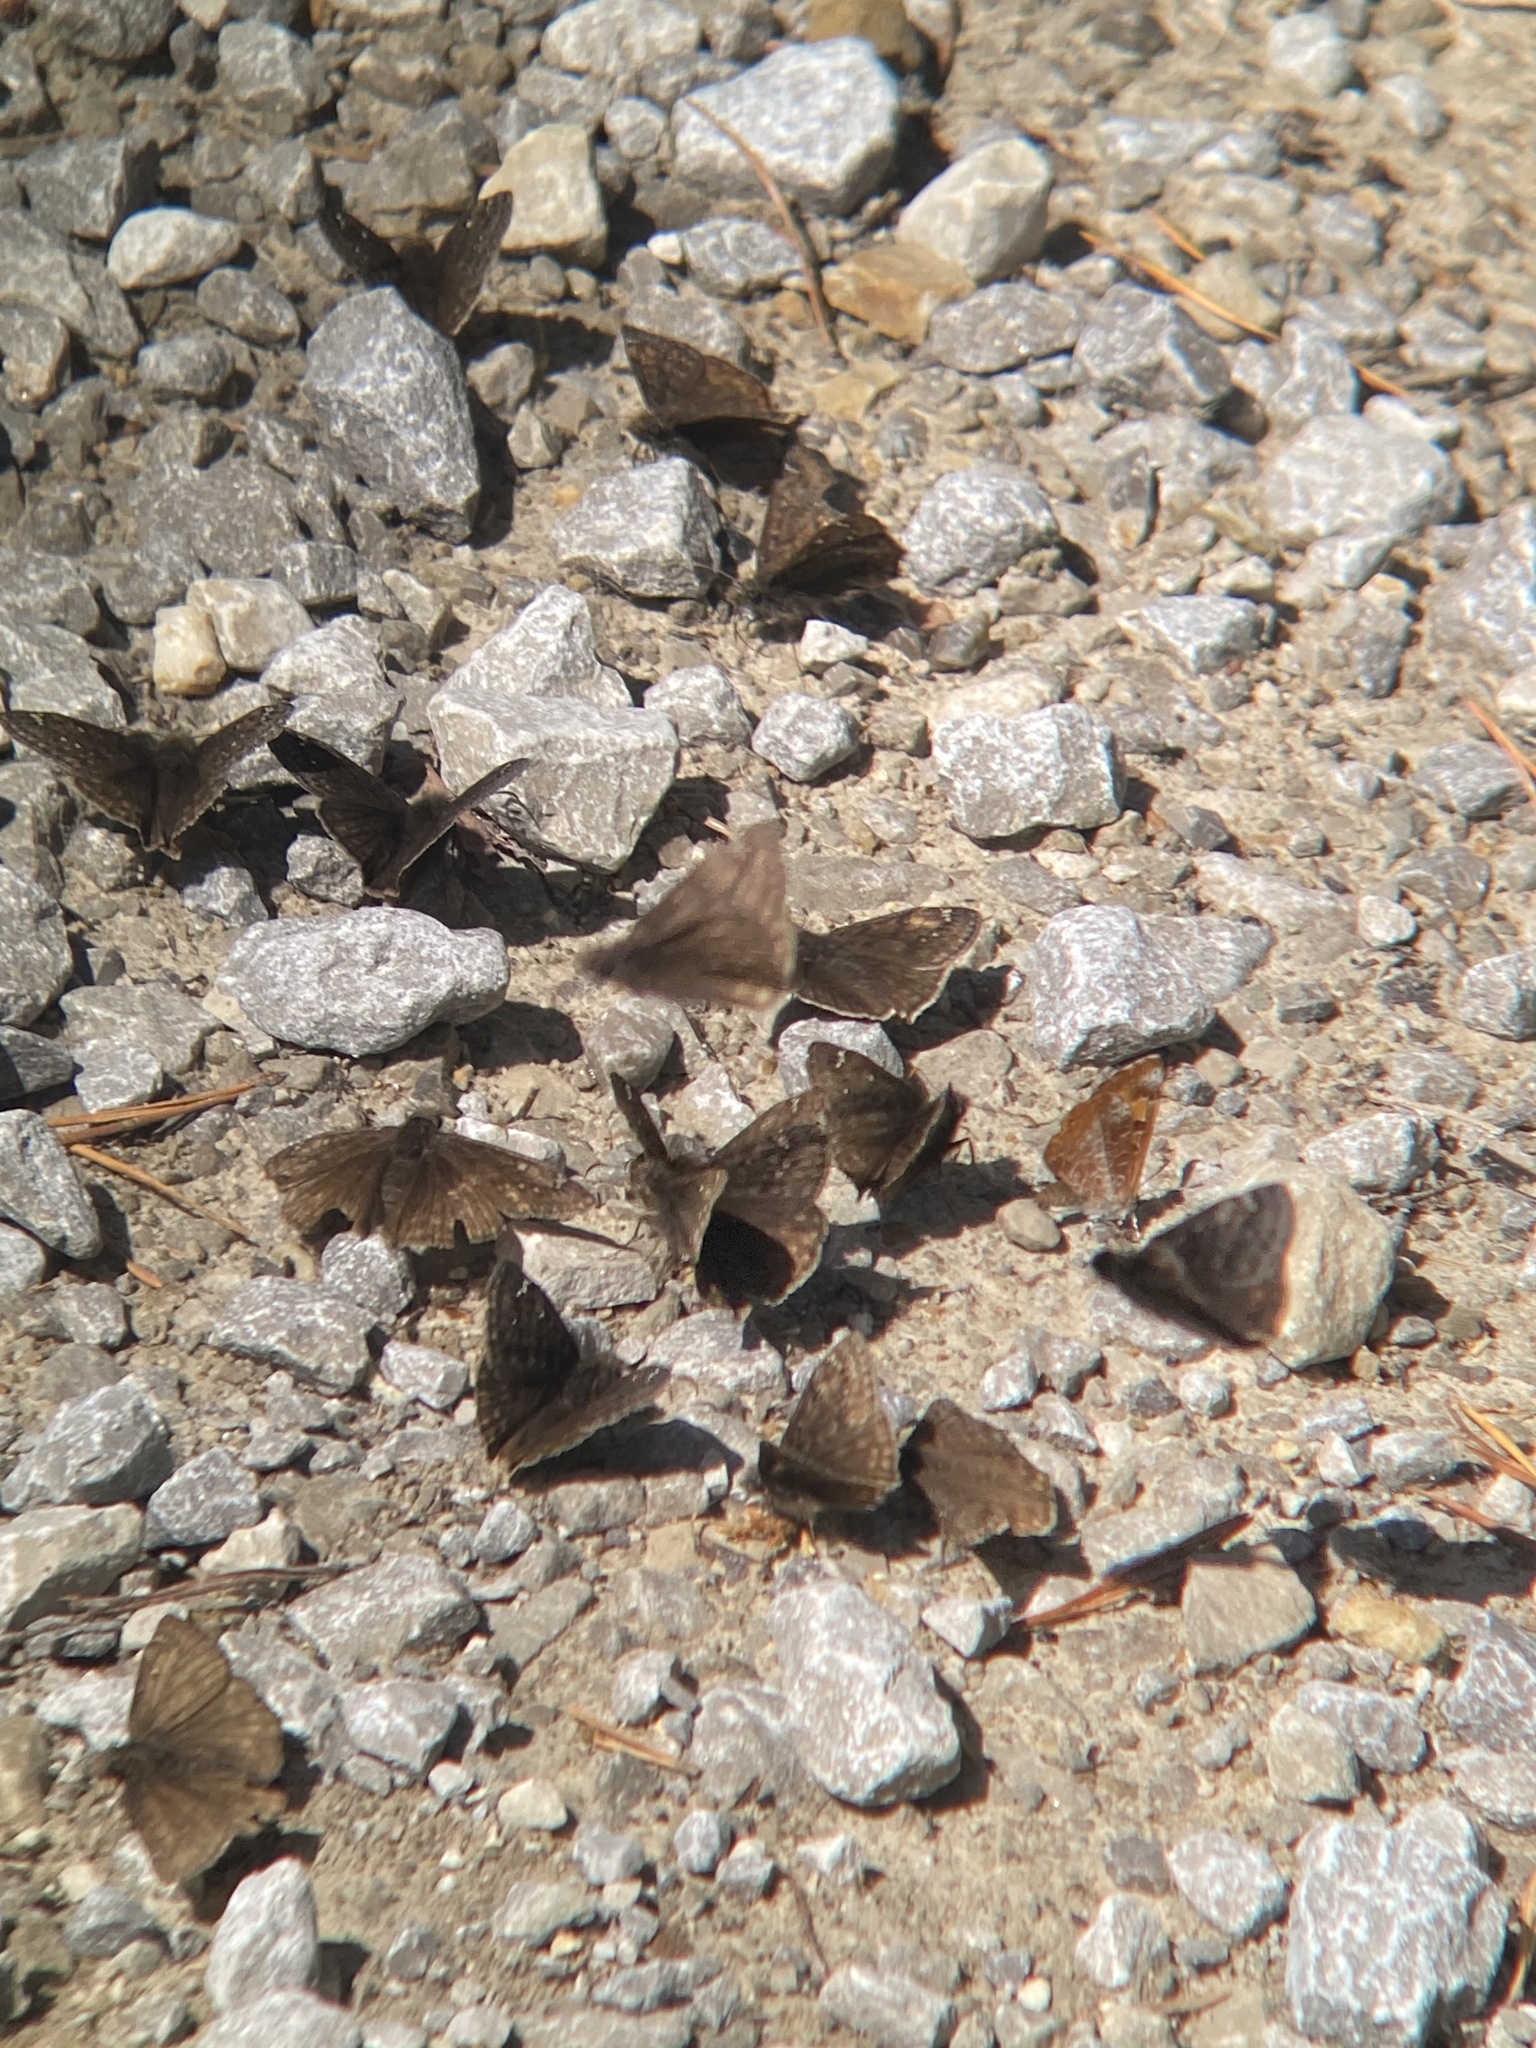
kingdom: Animalia
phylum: Arthropoda
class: Insecta
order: Lepidoptera
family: Hesperiidae
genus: Erynnis
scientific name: Erynnis juvenalis
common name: Juvenal's duskywing
